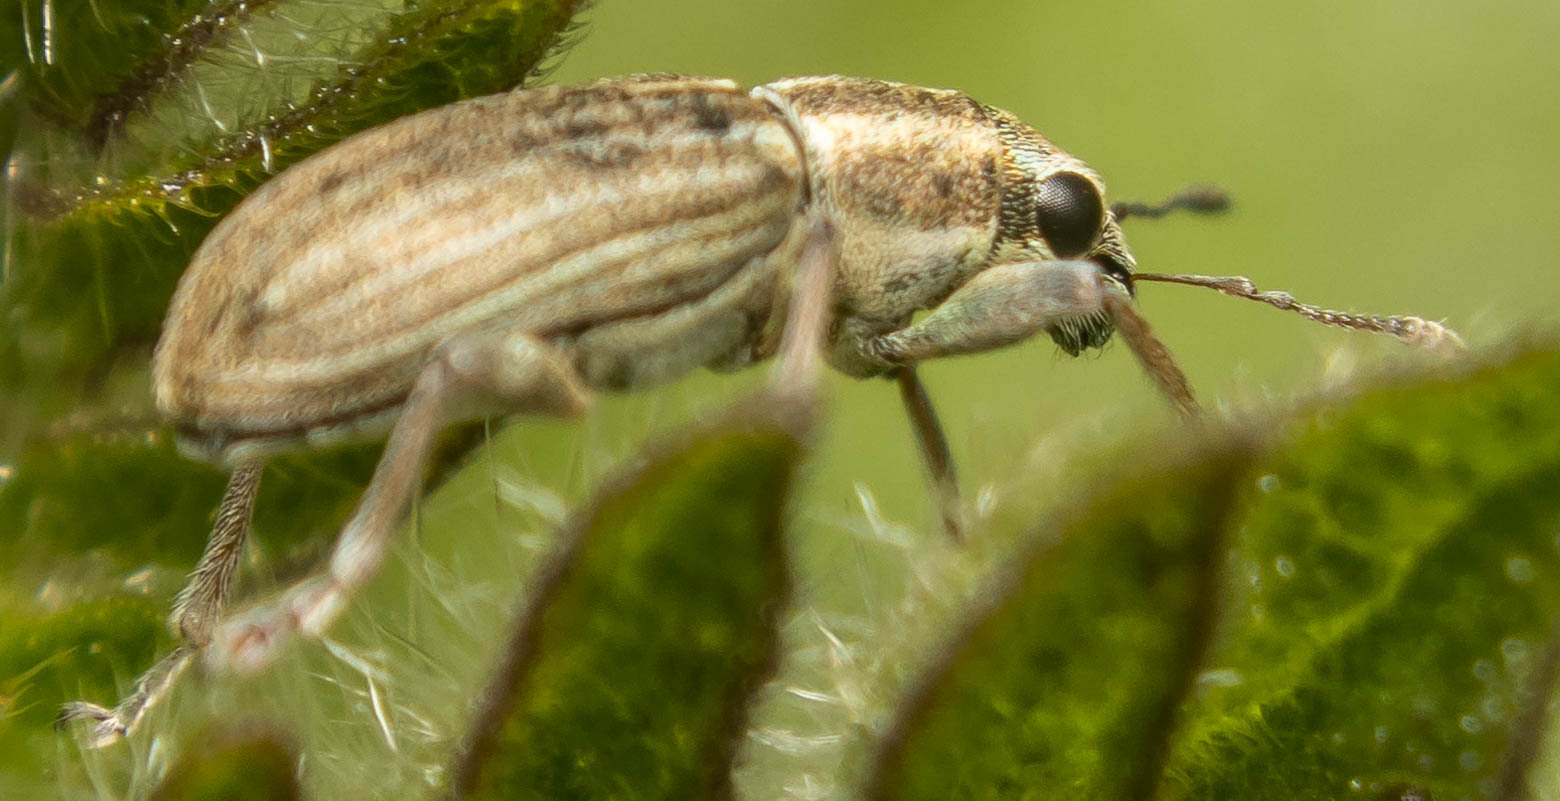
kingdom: Animalia
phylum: Arthropoda
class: Insecta
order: Coleoptera
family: Curculionidae
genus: Sitona
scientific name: Sitona lineatus
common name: Weevil
